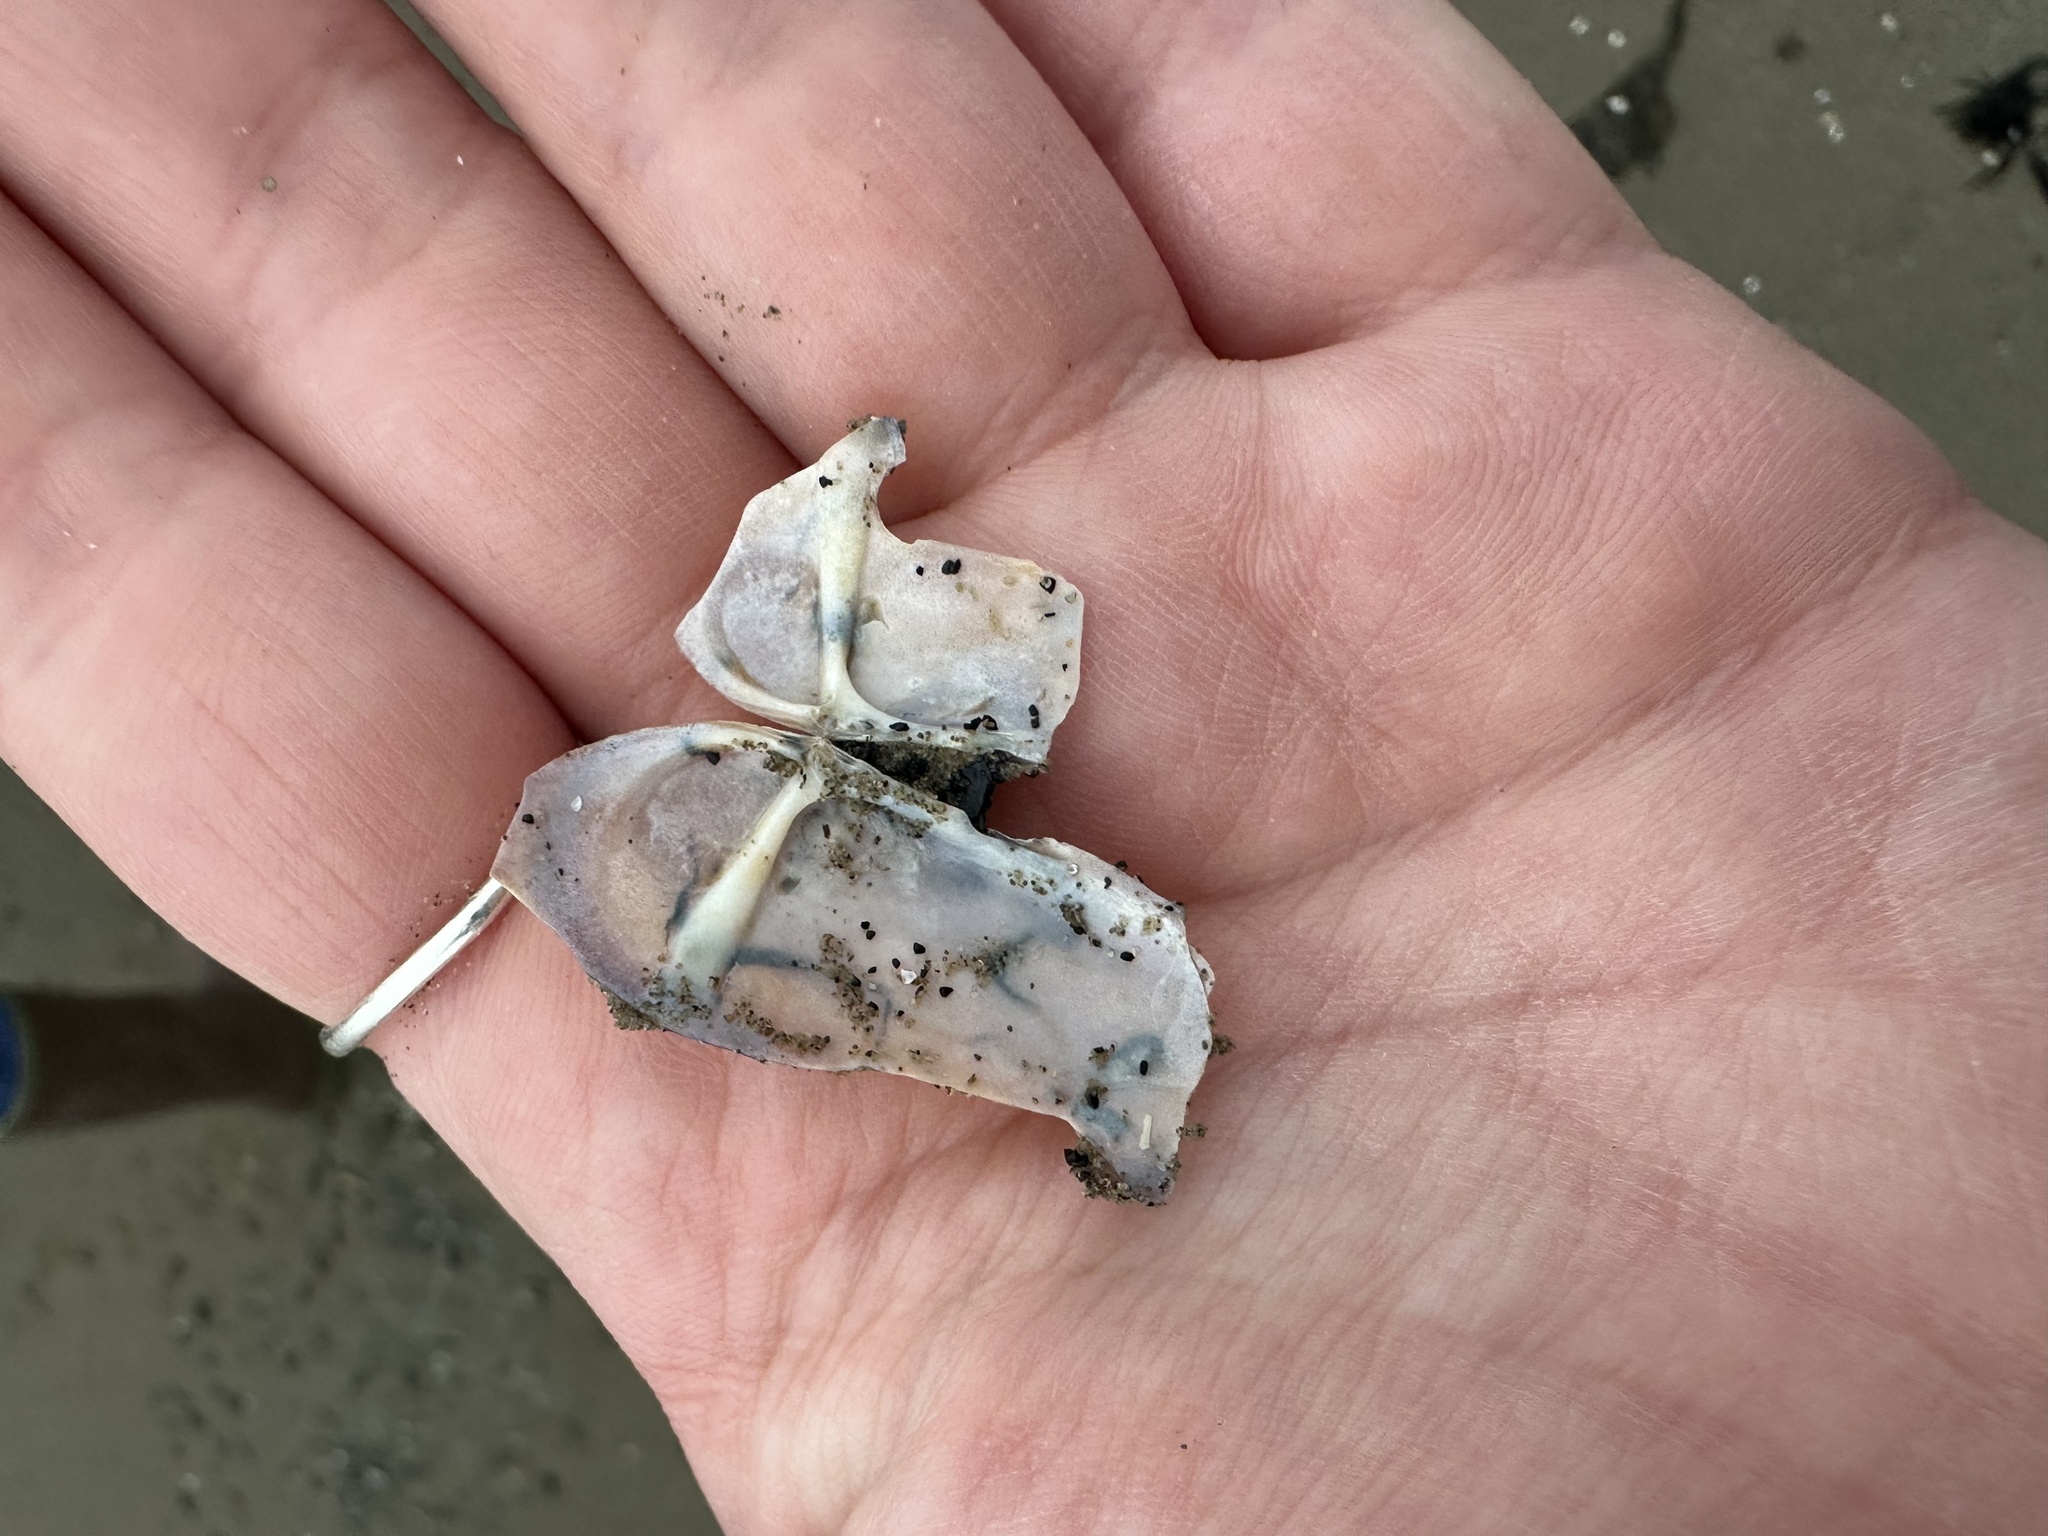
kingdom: Animalia
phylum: Mollusca
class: Bivalvia
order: Adapedonta
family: Pharidae
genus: Siliqua
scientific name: Siliqua costata
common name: Atlantic razor
